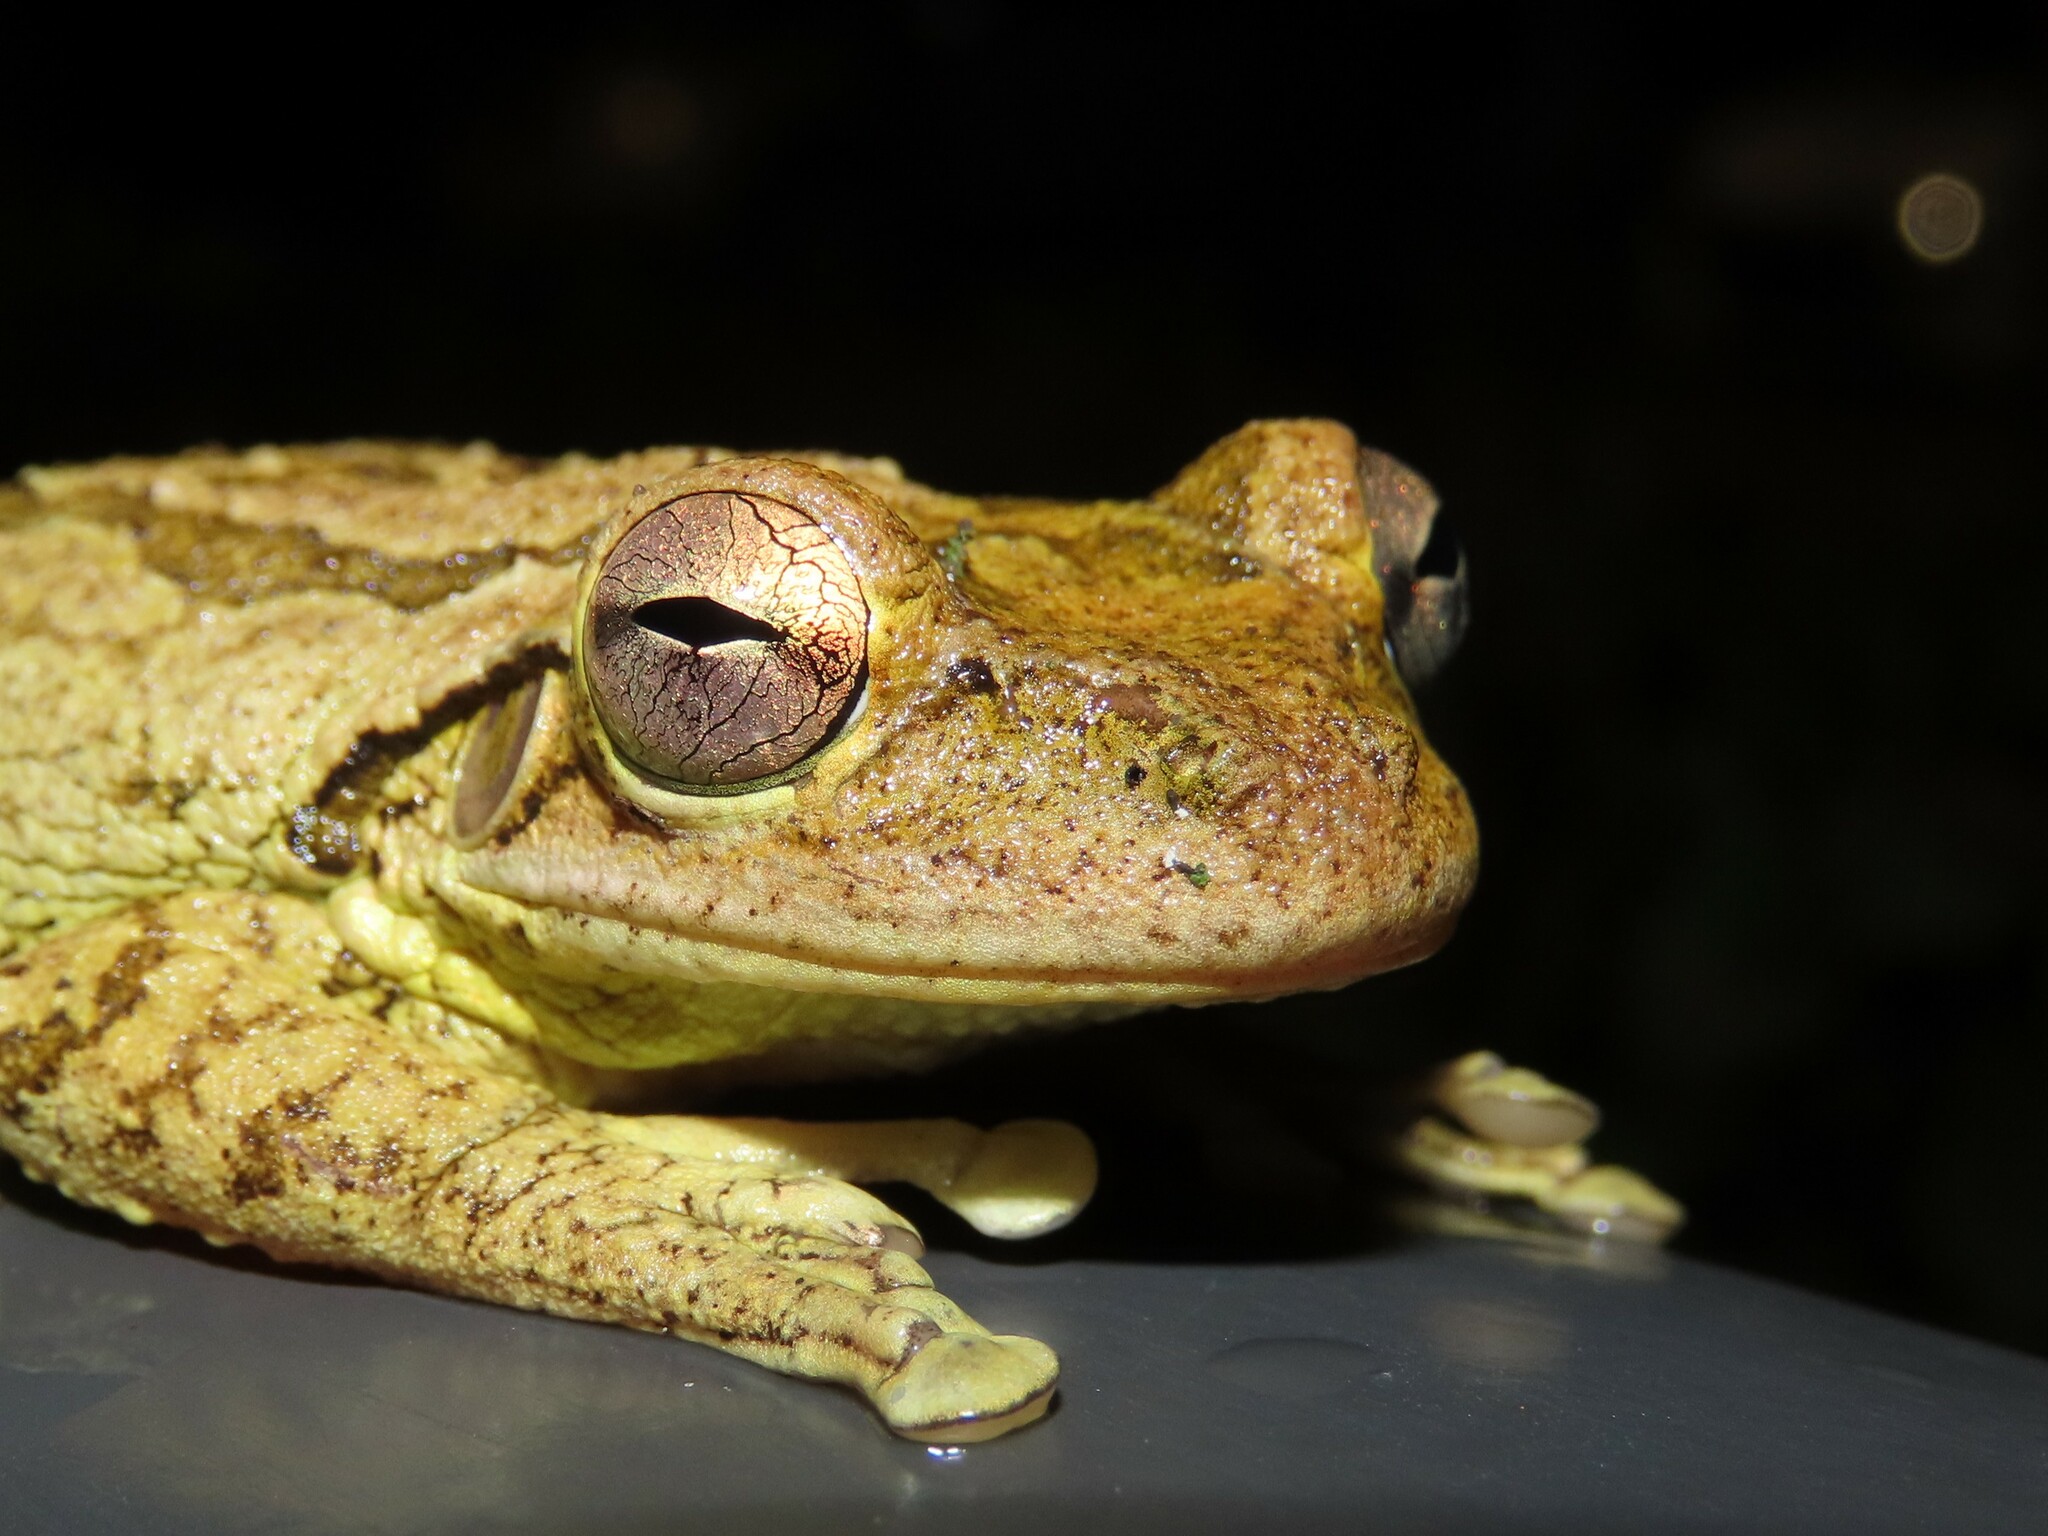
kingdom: Animalia
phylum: Chordata
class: Amphibia
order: Anura
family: Hylidae
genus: Osteopilus
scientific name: Osteopilus septentrionalis
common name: Cuban treefrog
